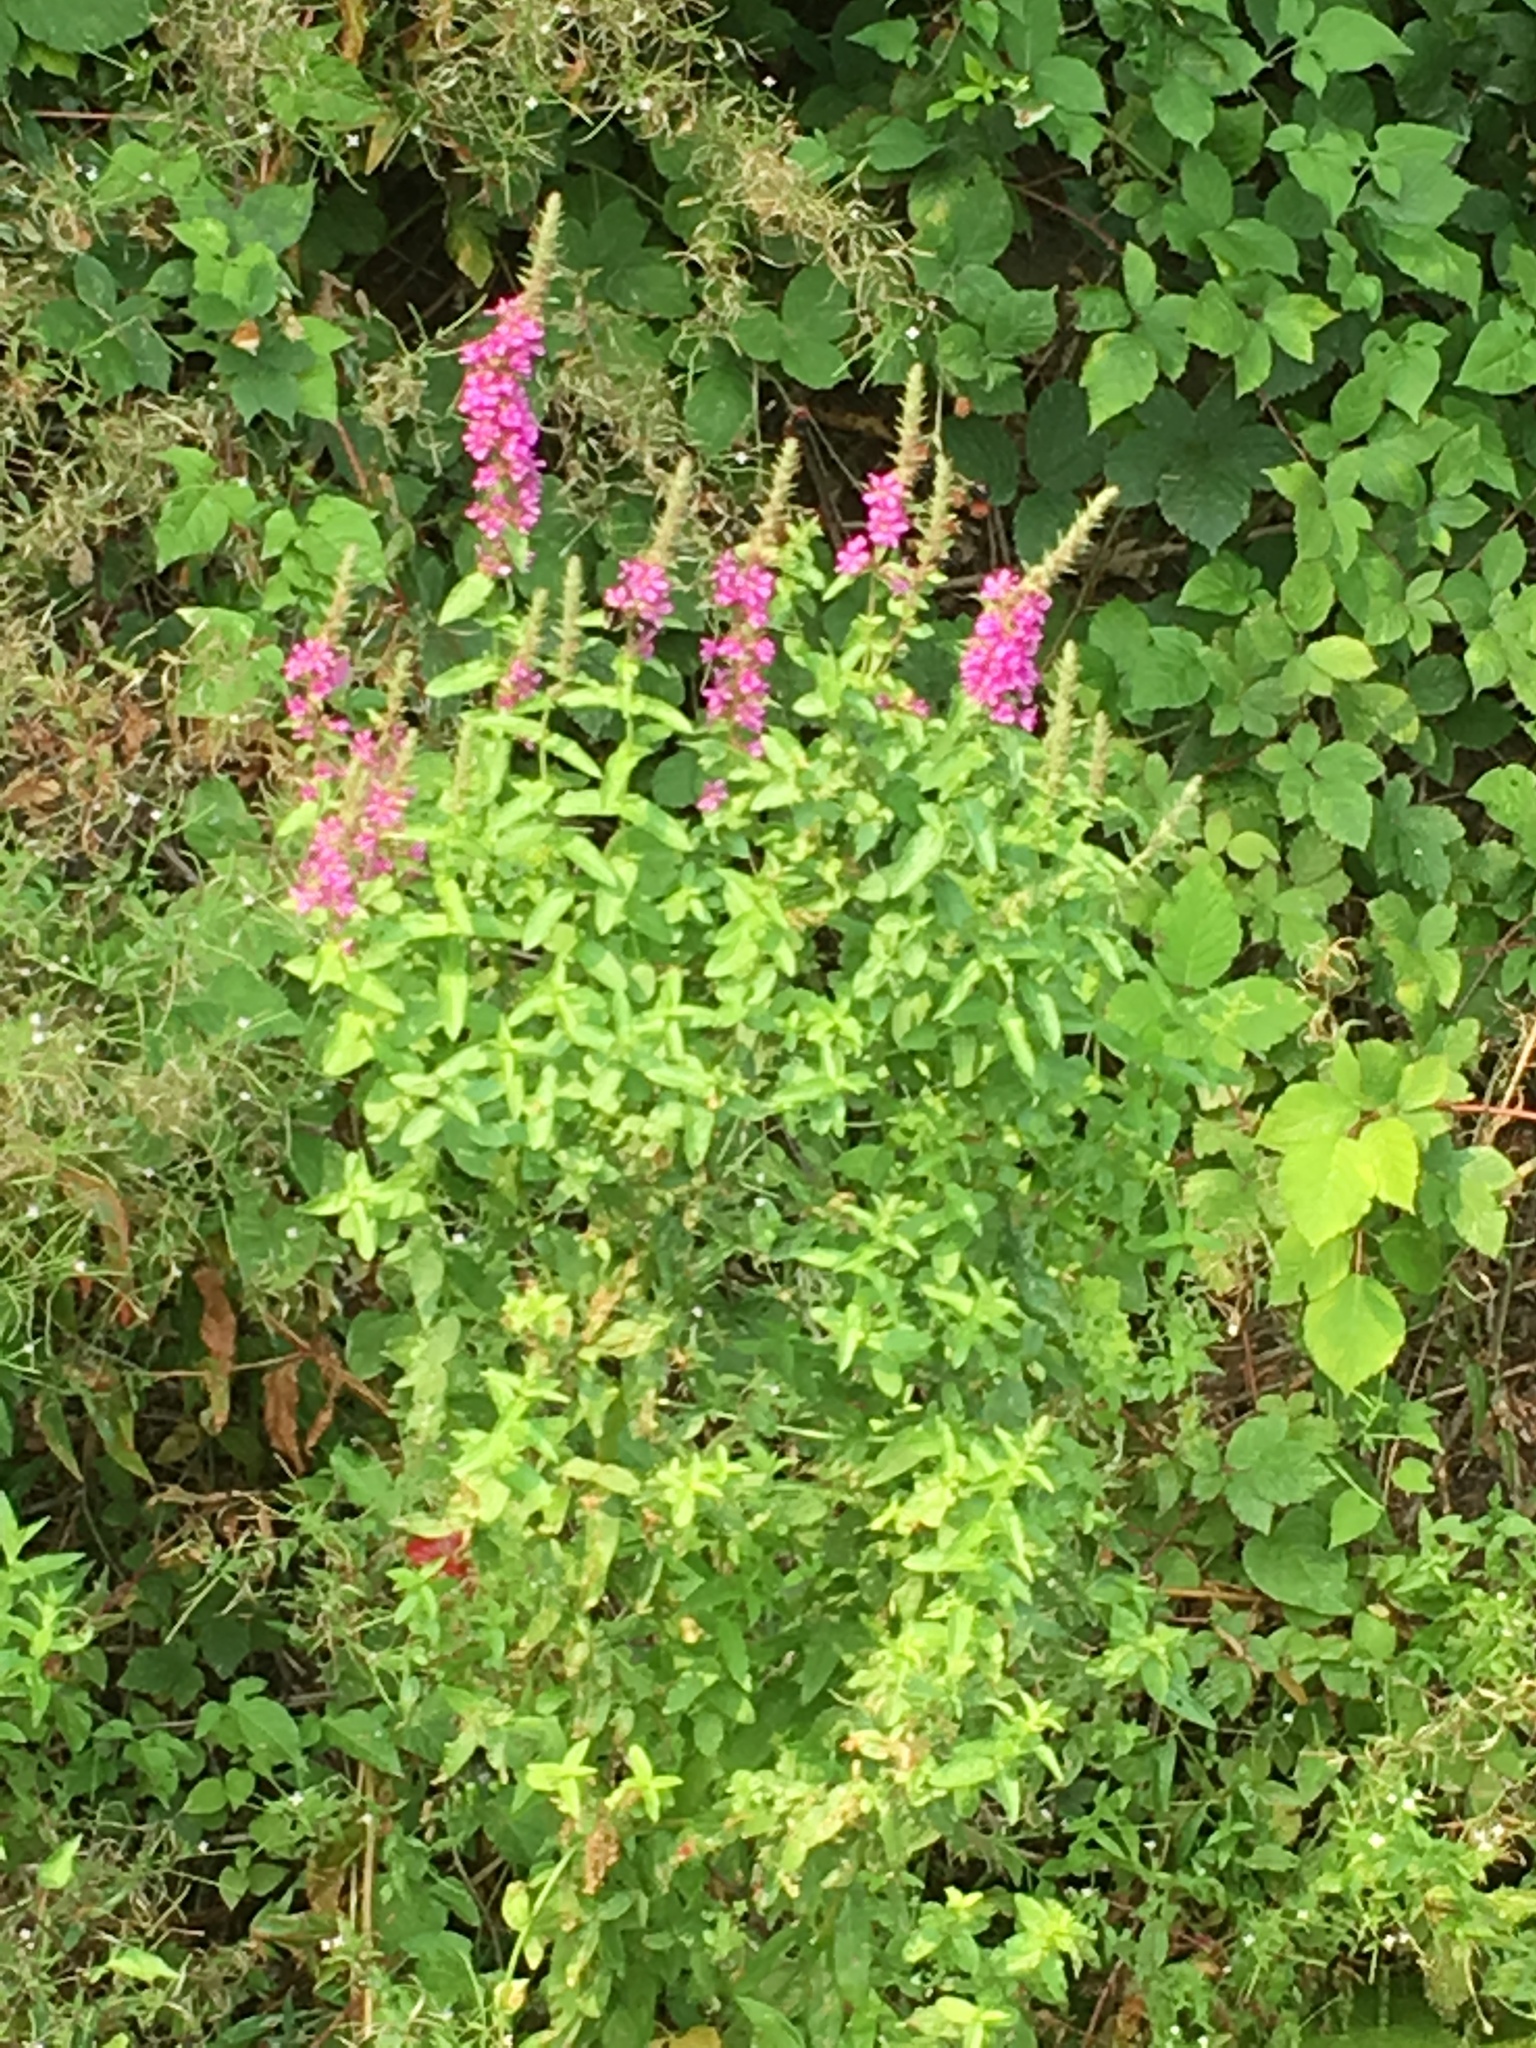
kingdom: Plantae
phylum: Tracheophyta
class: Magnoliopsida
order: Myrtales
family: Lythraceae
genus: Lythrum
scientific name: Lythrum salicaria
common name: Purple loosestrife
